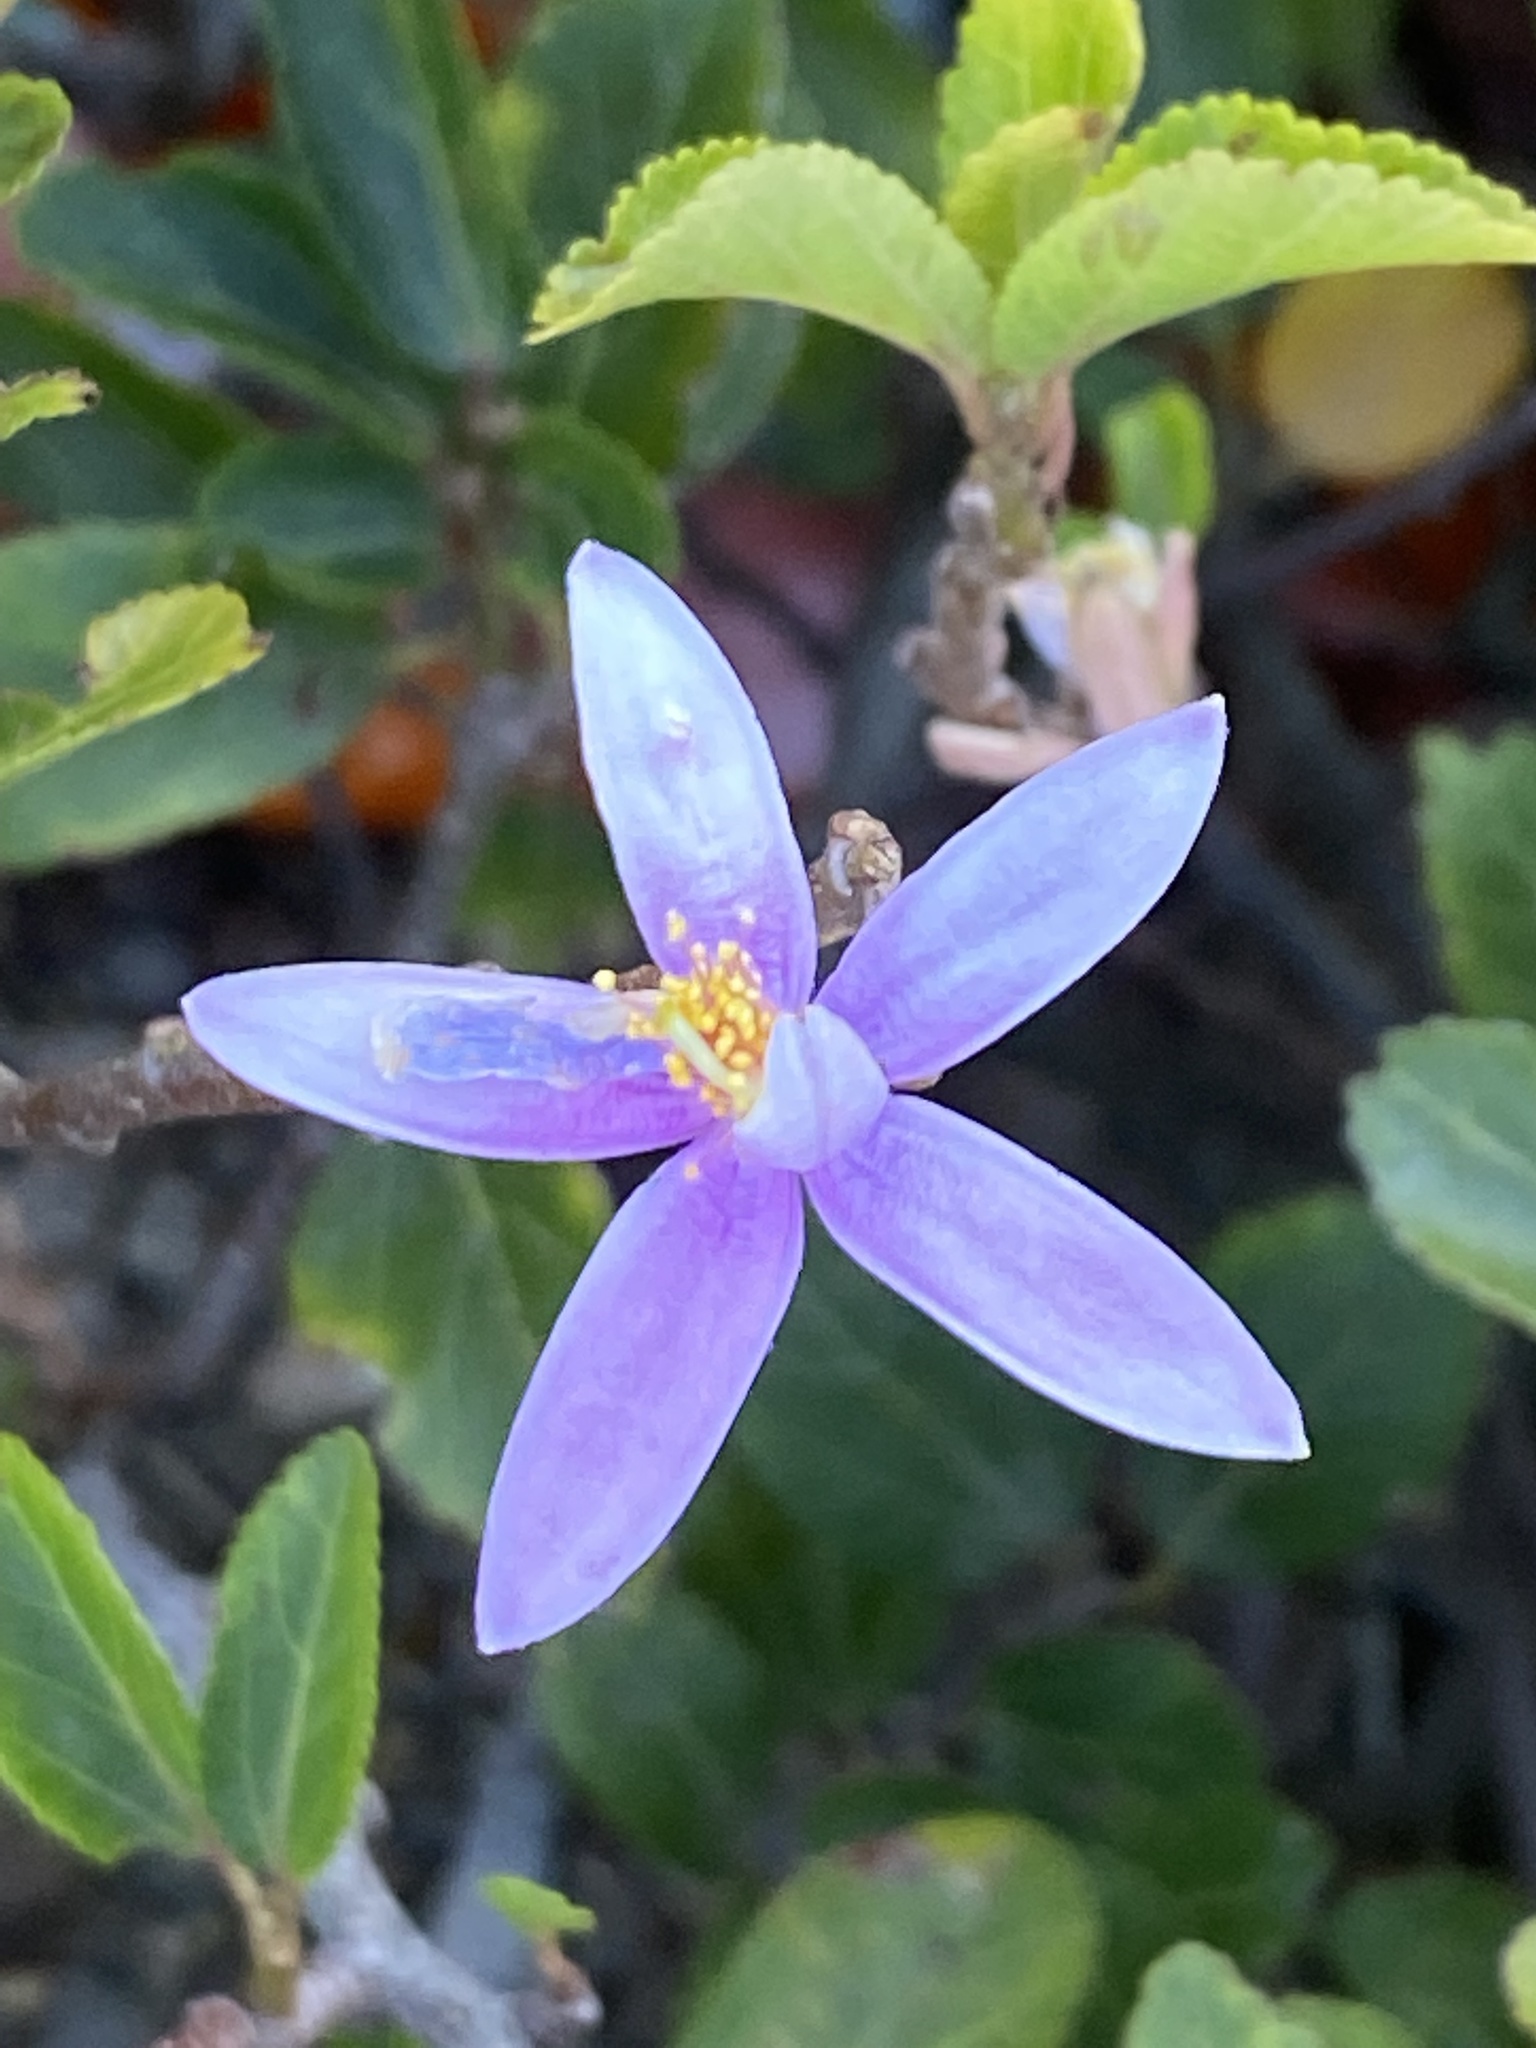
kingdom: Plantae
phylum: Tracheophyta
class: Magnoliopsida
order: Malvales
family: Malvaceae
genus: Grewia
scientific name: Grewia occidentalis
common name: Crossberry
